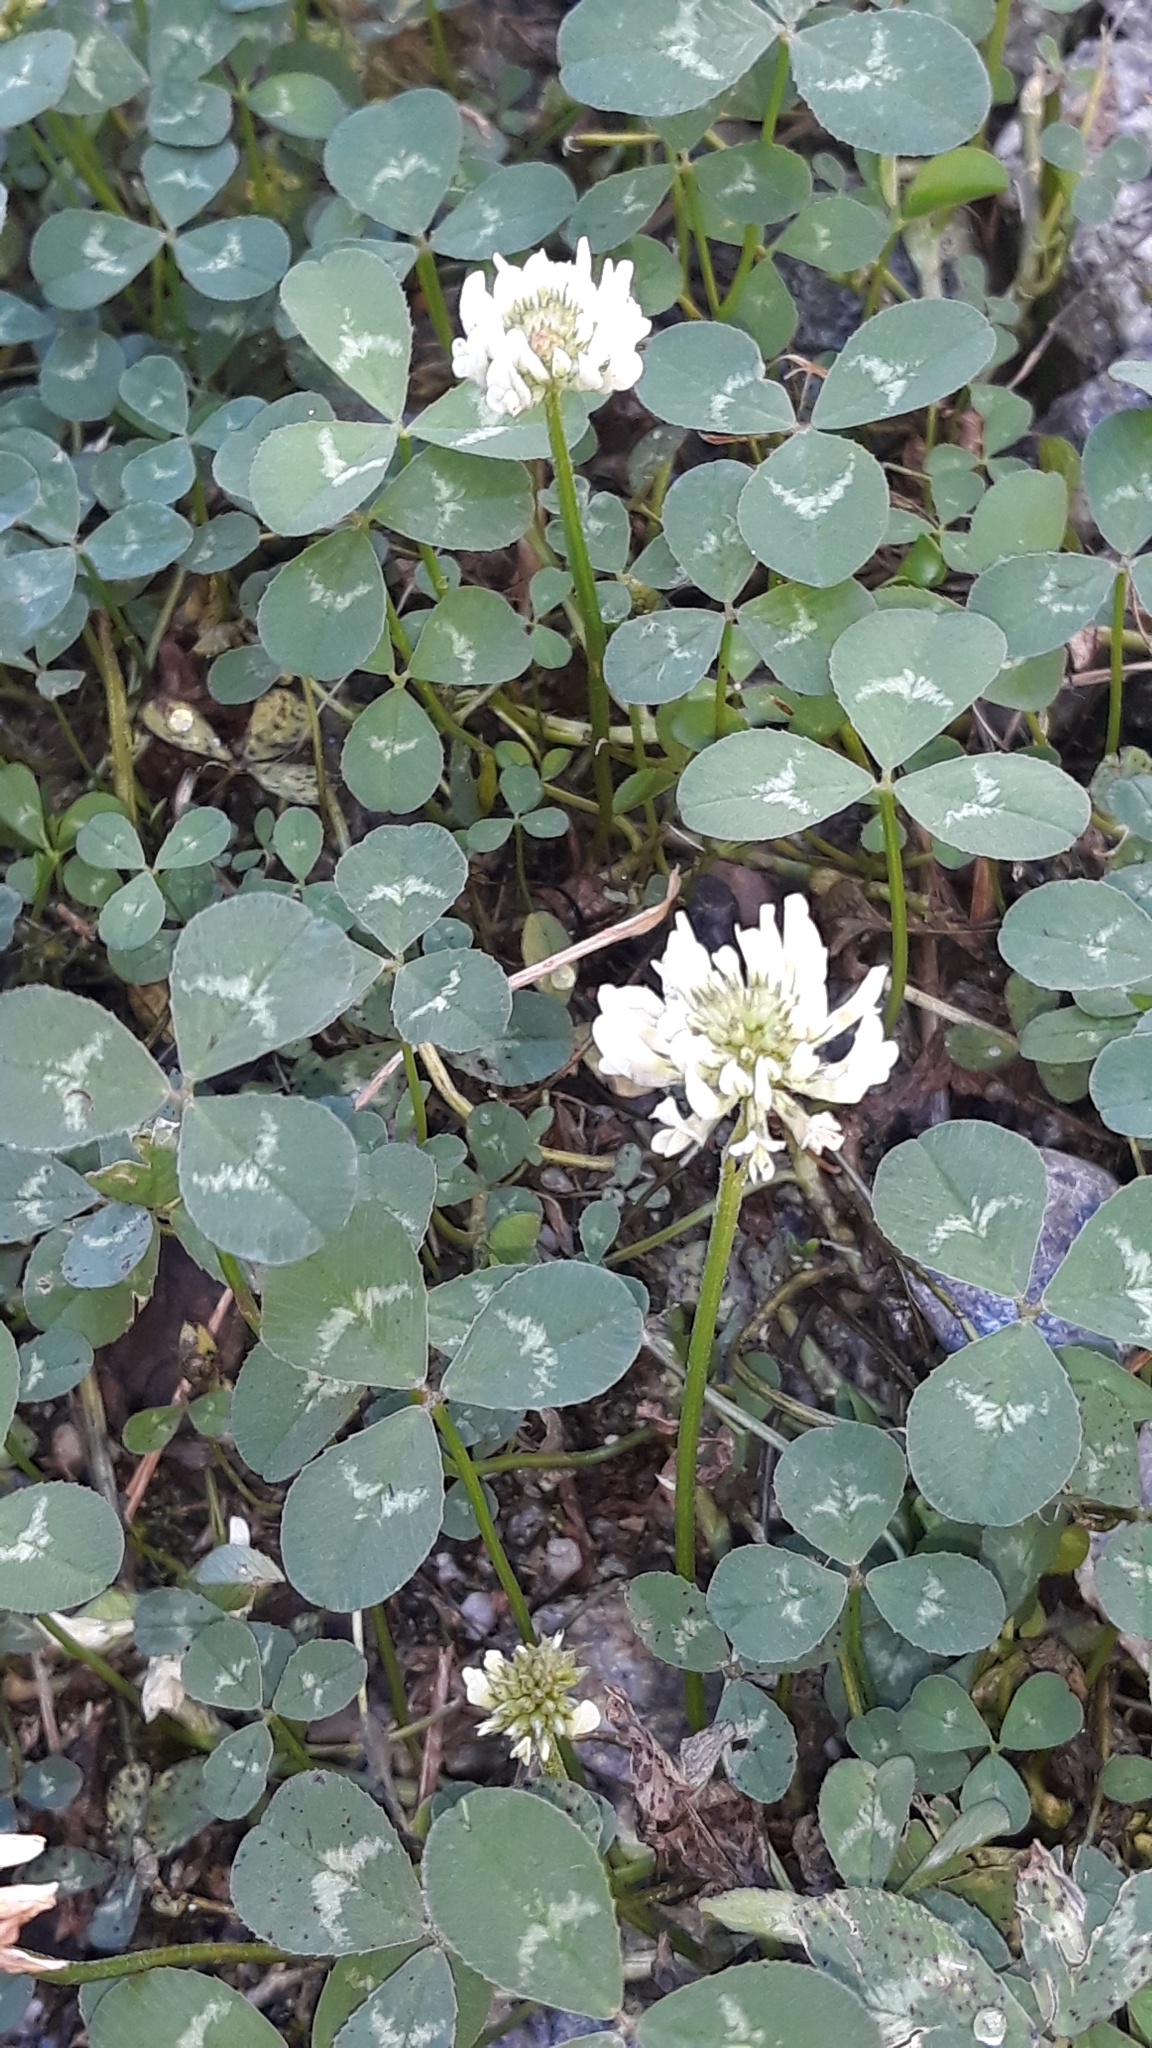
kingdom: Plantae
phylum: Tracheophyta
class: Magnoliopsida
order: Fabales
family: Fabaceae
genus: Trifolium
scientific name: Trifolium repens
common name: White clover
